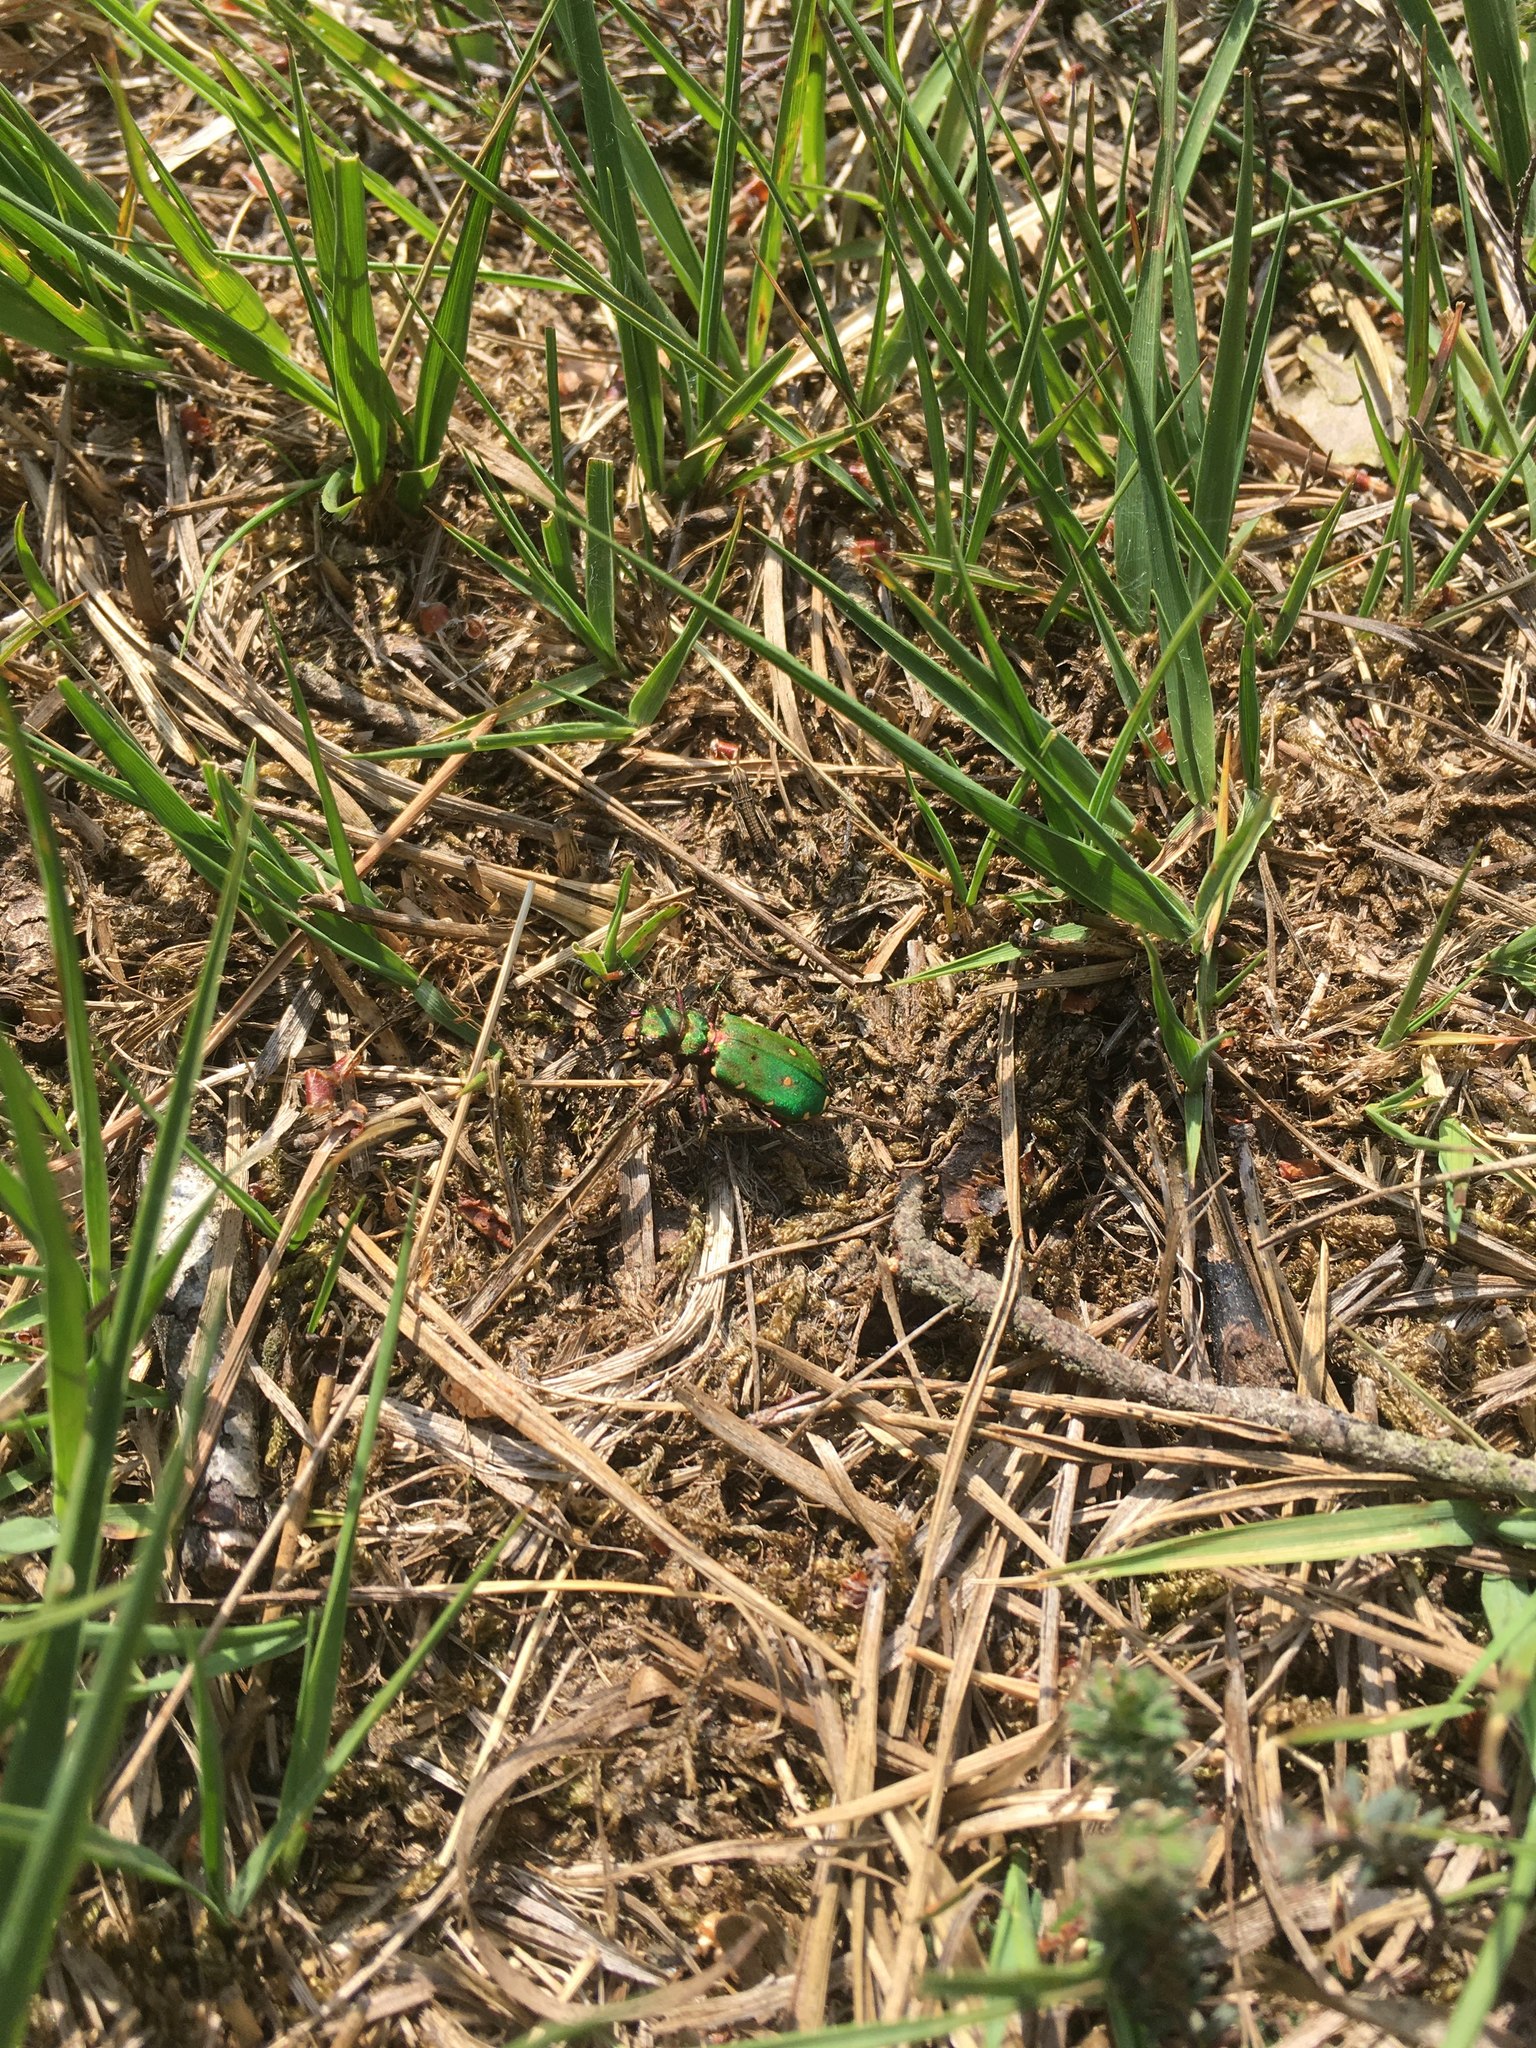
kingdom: Animalia
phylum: Arthropoda
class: Insecta
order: Coleoptera
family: Carabidae
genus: Cicindela
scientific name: Cicindela campestris
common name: Common tiger beetle
